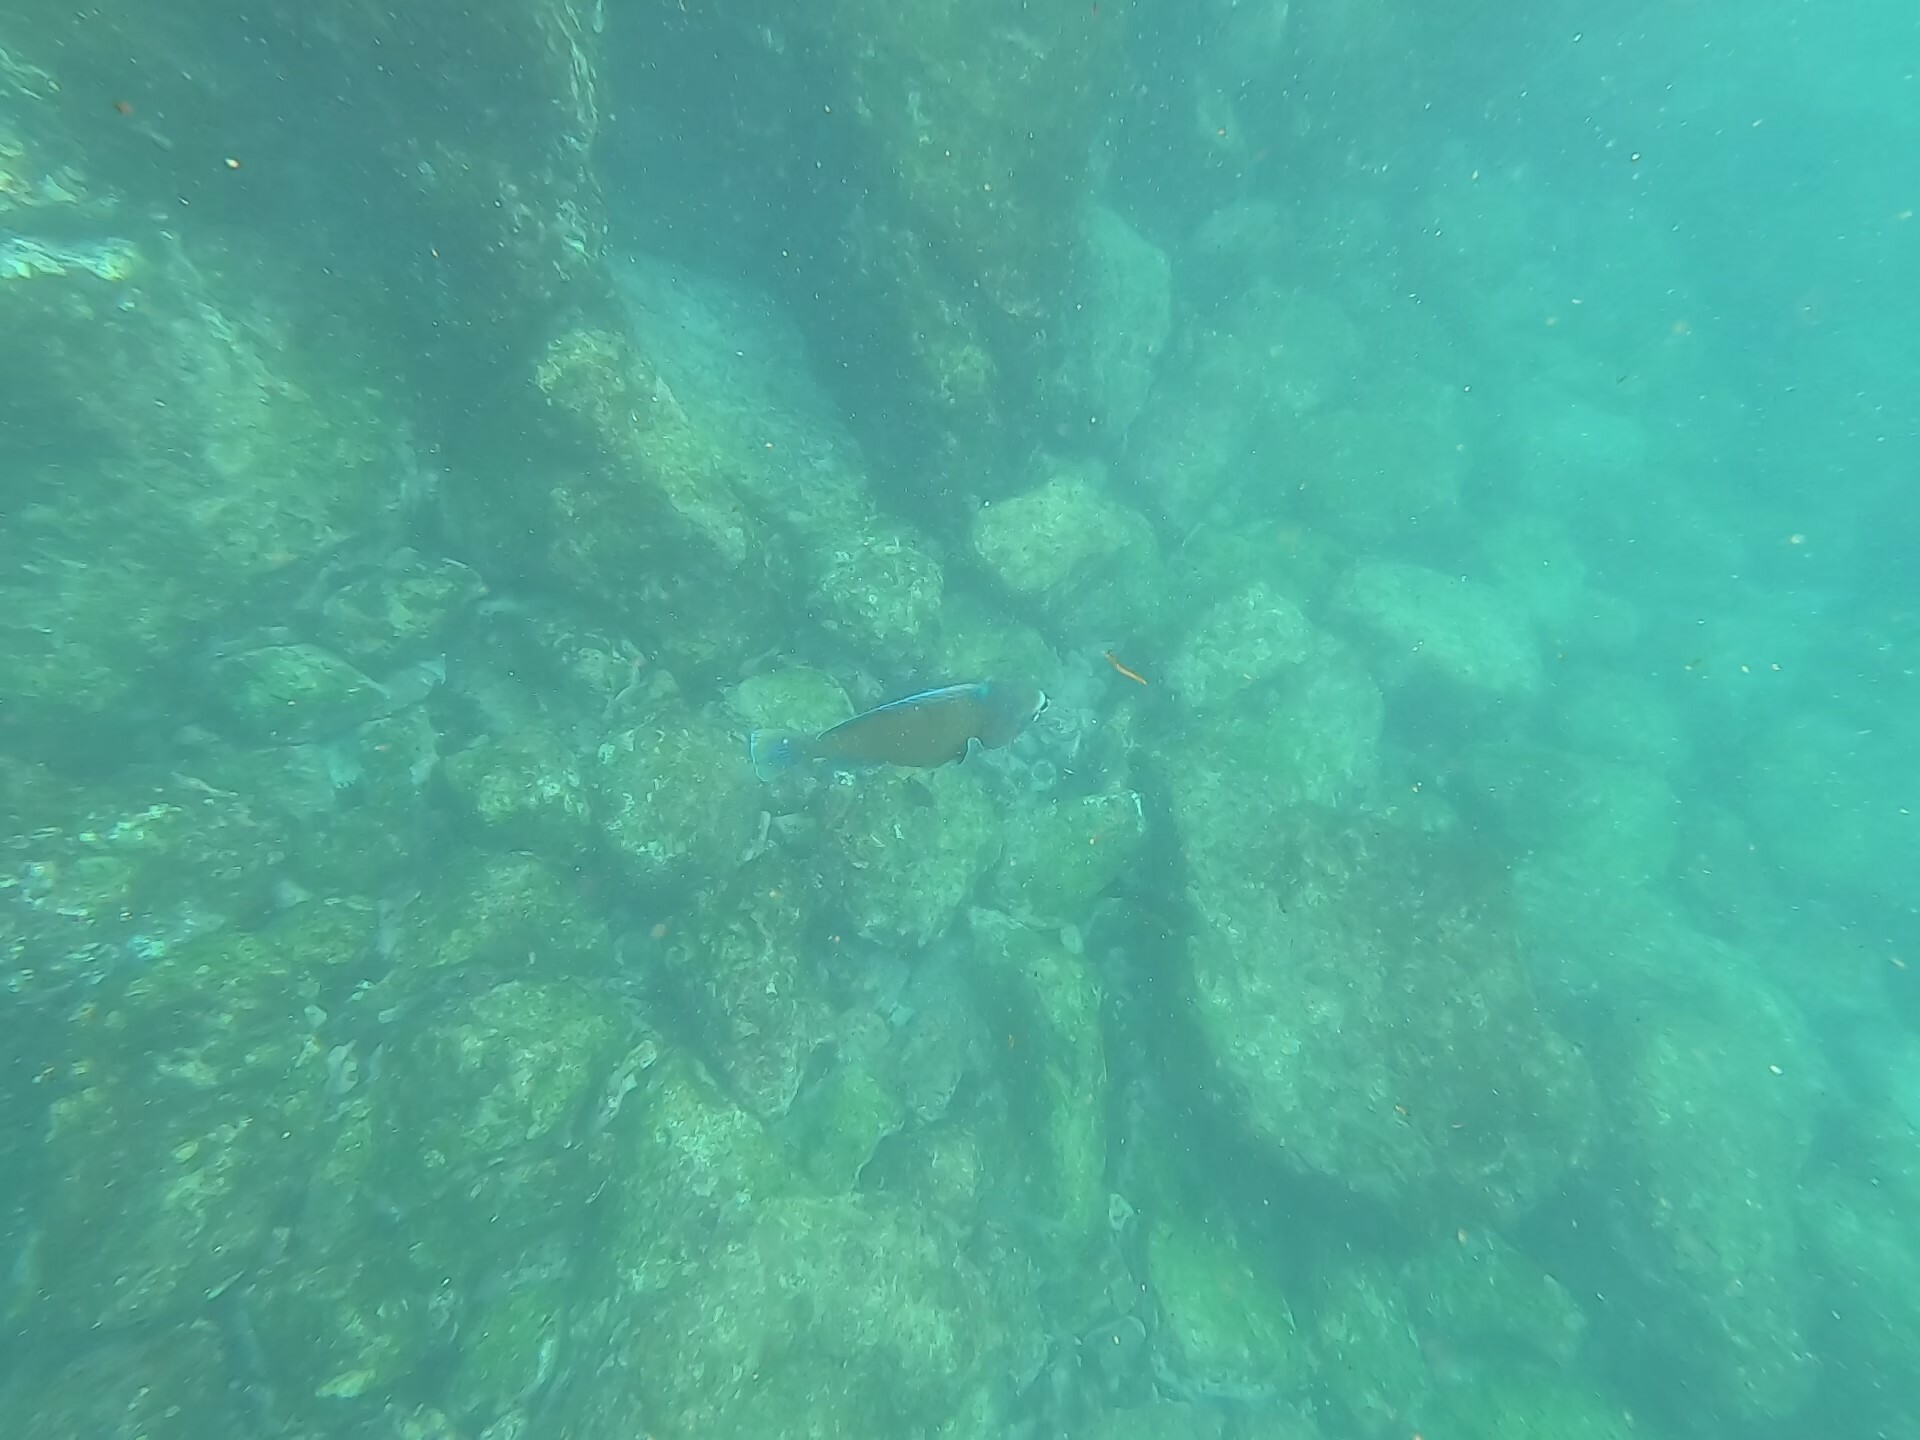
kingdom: Animalia
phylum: Chordata
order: Perciformes
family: Scaridae
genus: Scarus
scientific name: Scarus perrico
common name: Bumphead parrotfish
